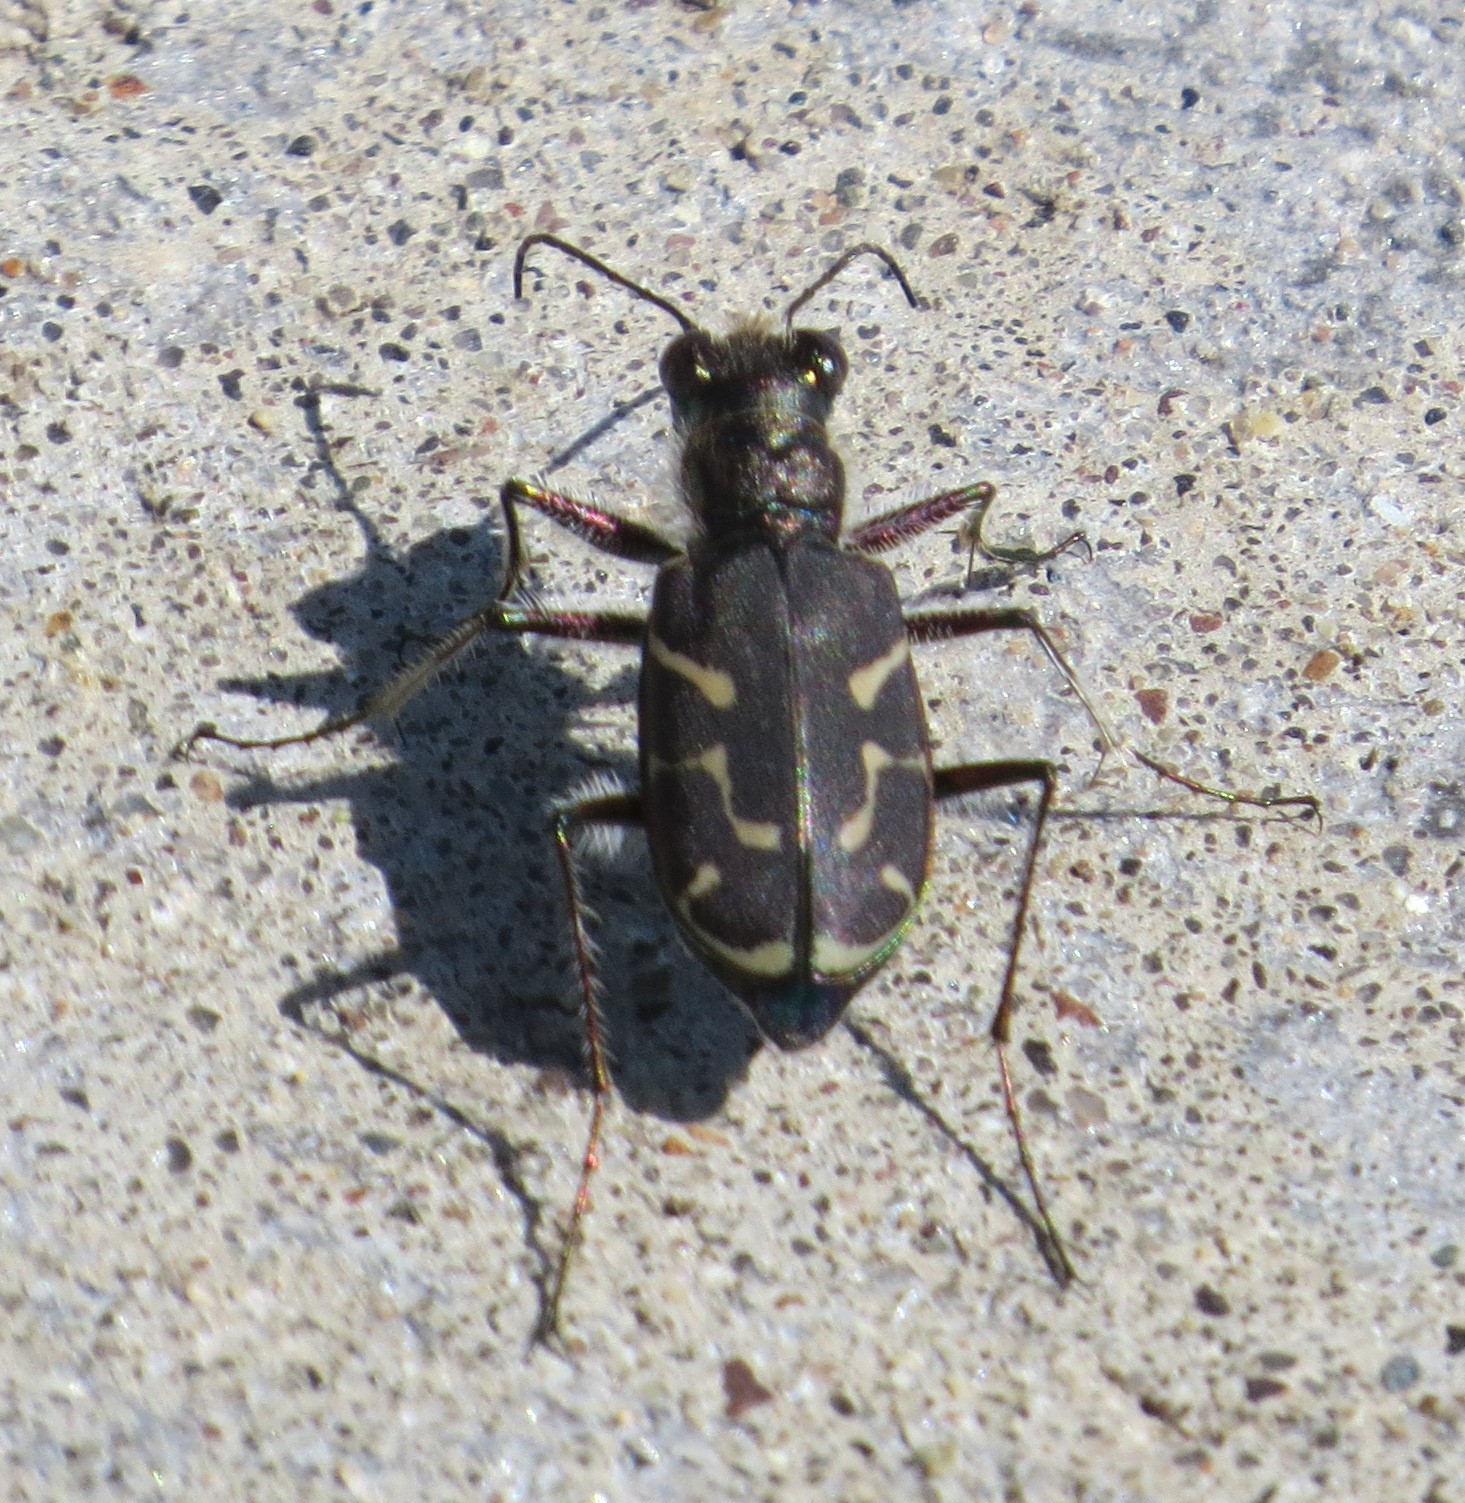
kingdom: Animalia
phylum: Arthropoda
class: Insecta
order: Coleoptera
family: Carabidae
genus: Cicindela
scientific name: Cicindela tranquebarica
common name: Oblique-lined tiger beetle
